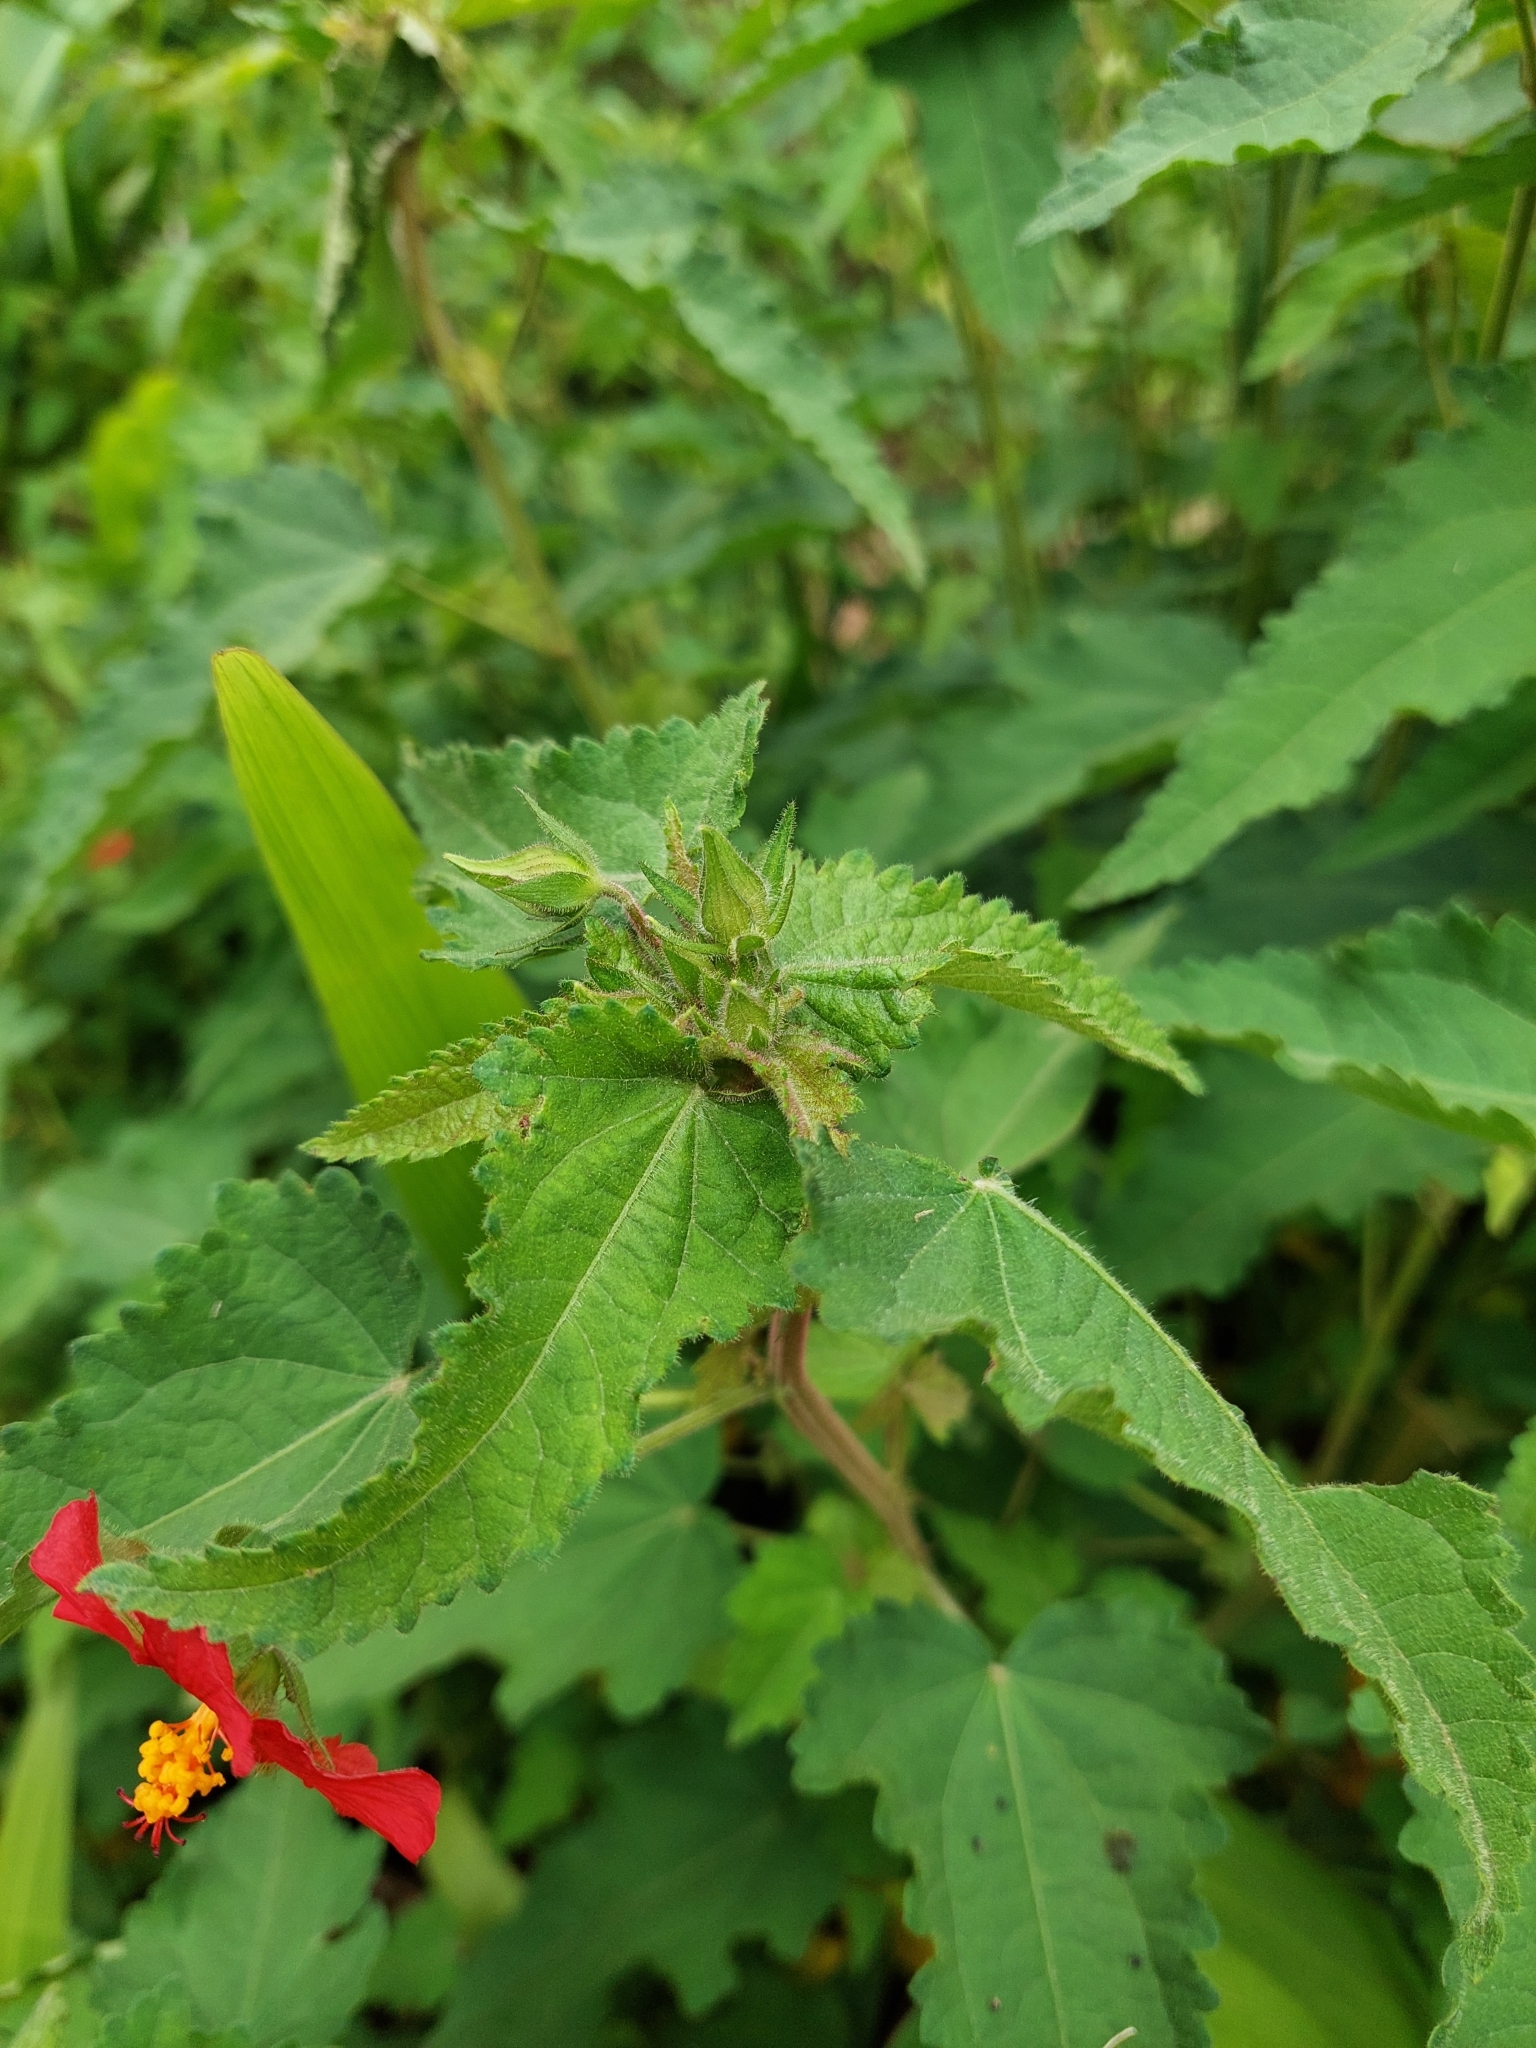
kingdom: Plantae
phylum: Tracheophyta
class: Magnoliopsida
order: Malvales
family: Malvaceae
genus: Pavonia
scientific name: Pavonia missionum
